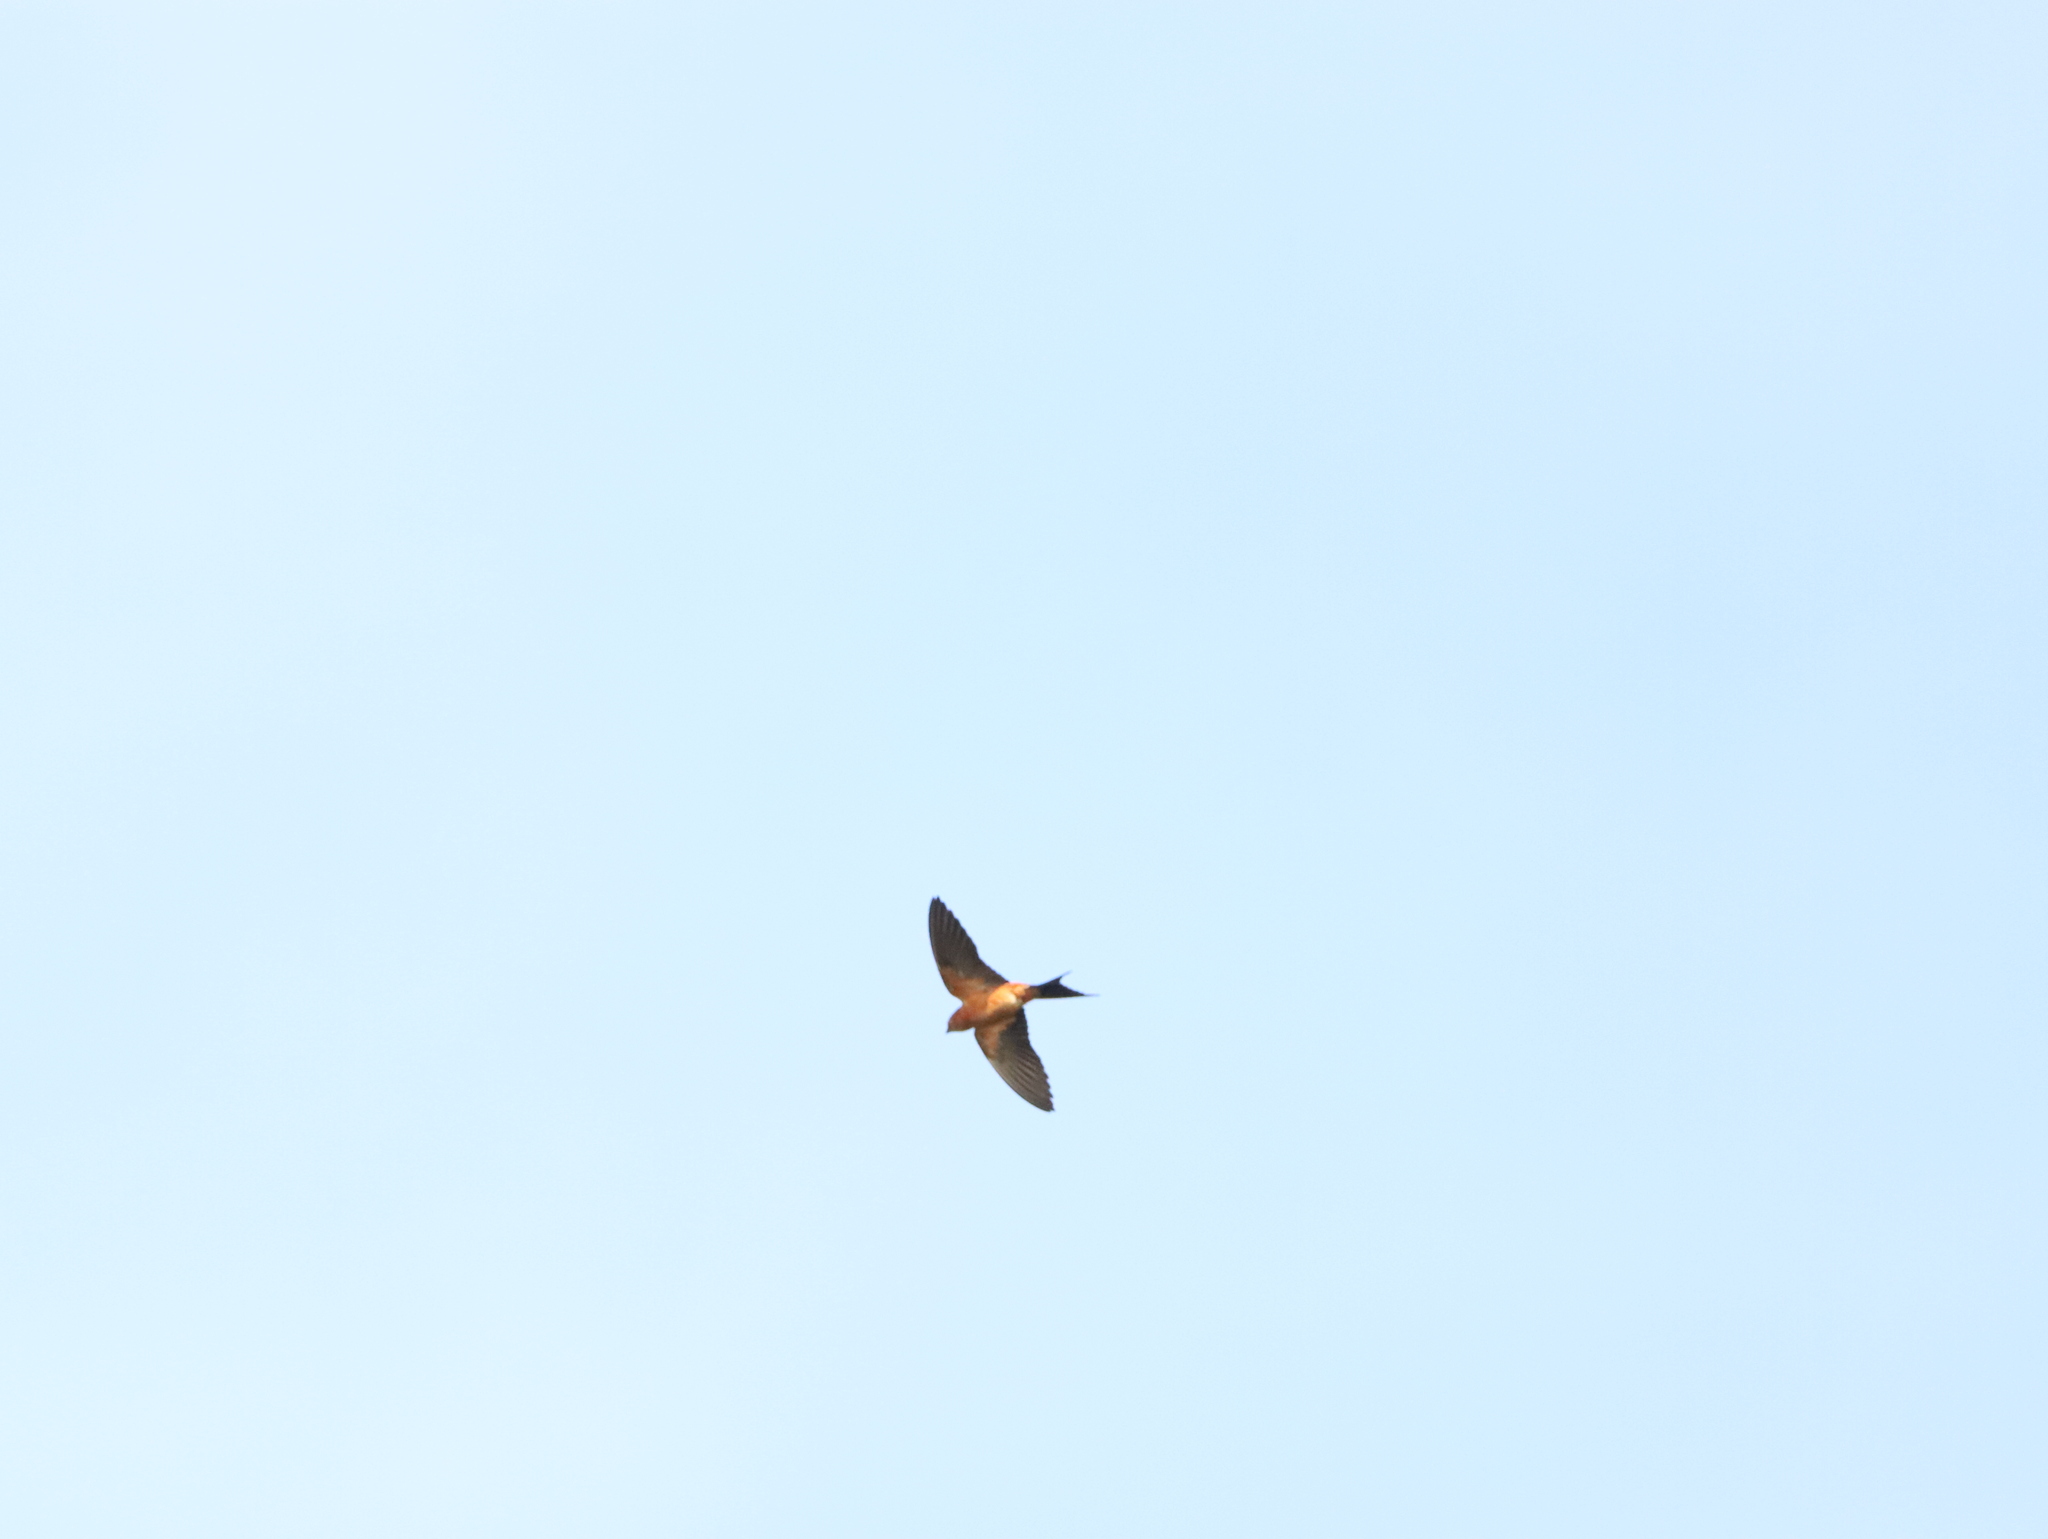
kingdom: Animalia
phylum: Chordata
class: Aves
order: Passeriformes
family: Hirundinidae
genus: Cecropis
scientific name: Cecropis hyperythra
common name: Sri lanka swallow
